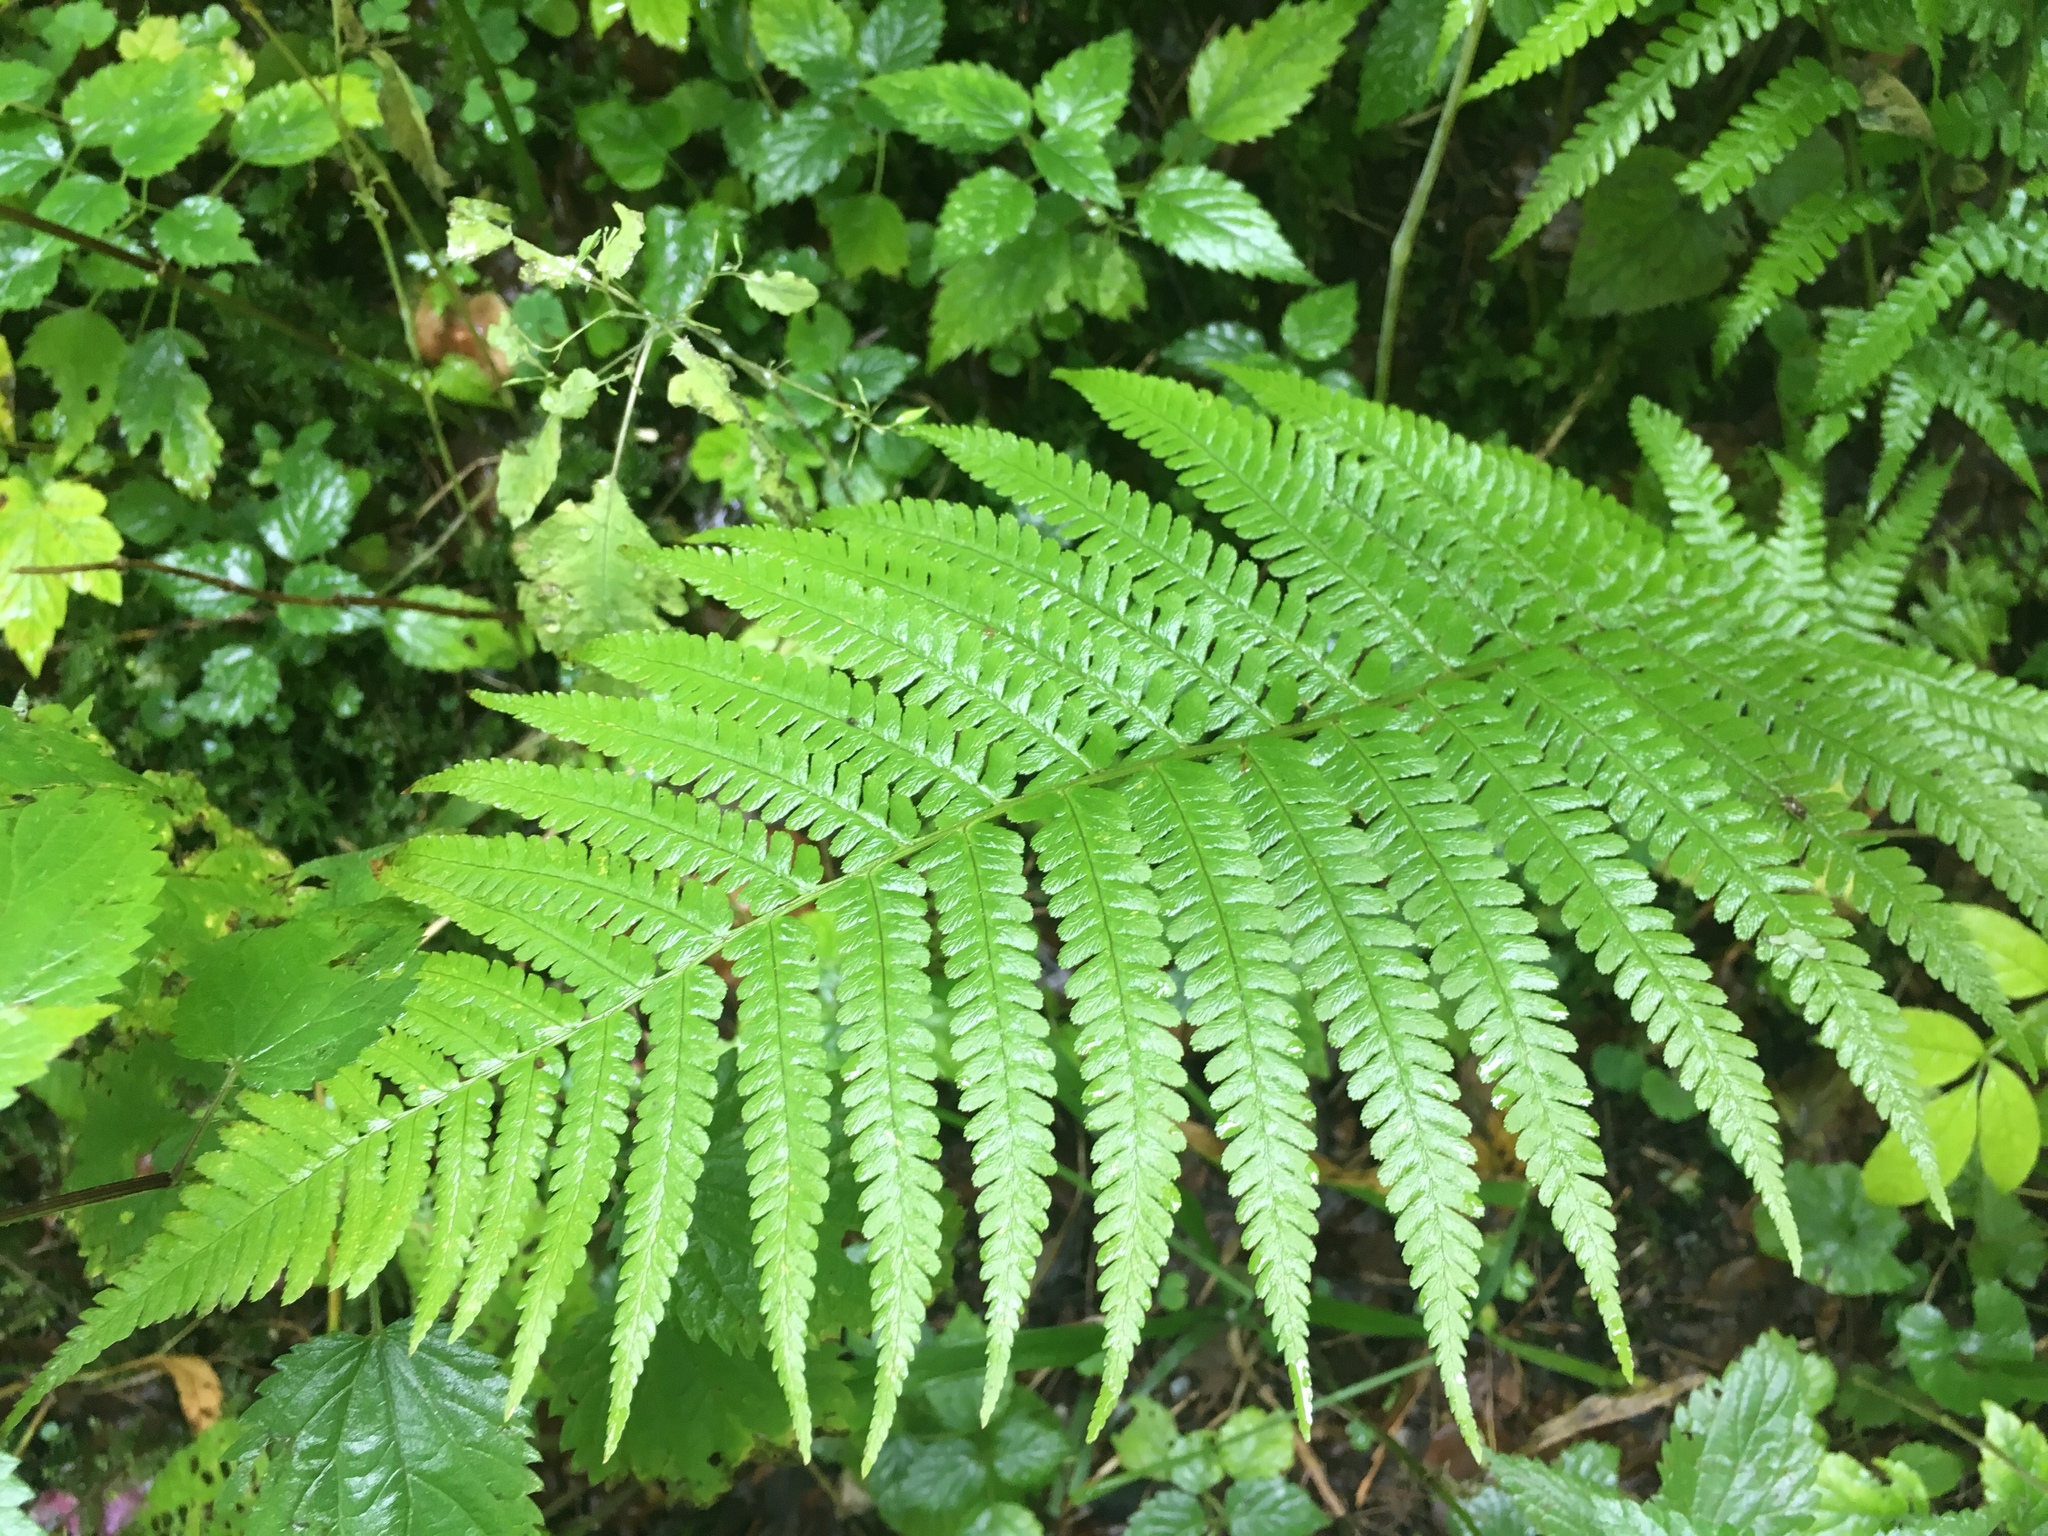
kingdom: Plantae
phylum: Tracheophyta
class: Polypodiopsida
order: Polypodiales
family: Dryopteridaceae
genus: Dryopteris
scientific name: Dryopteris filix-mas
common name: Male fern
